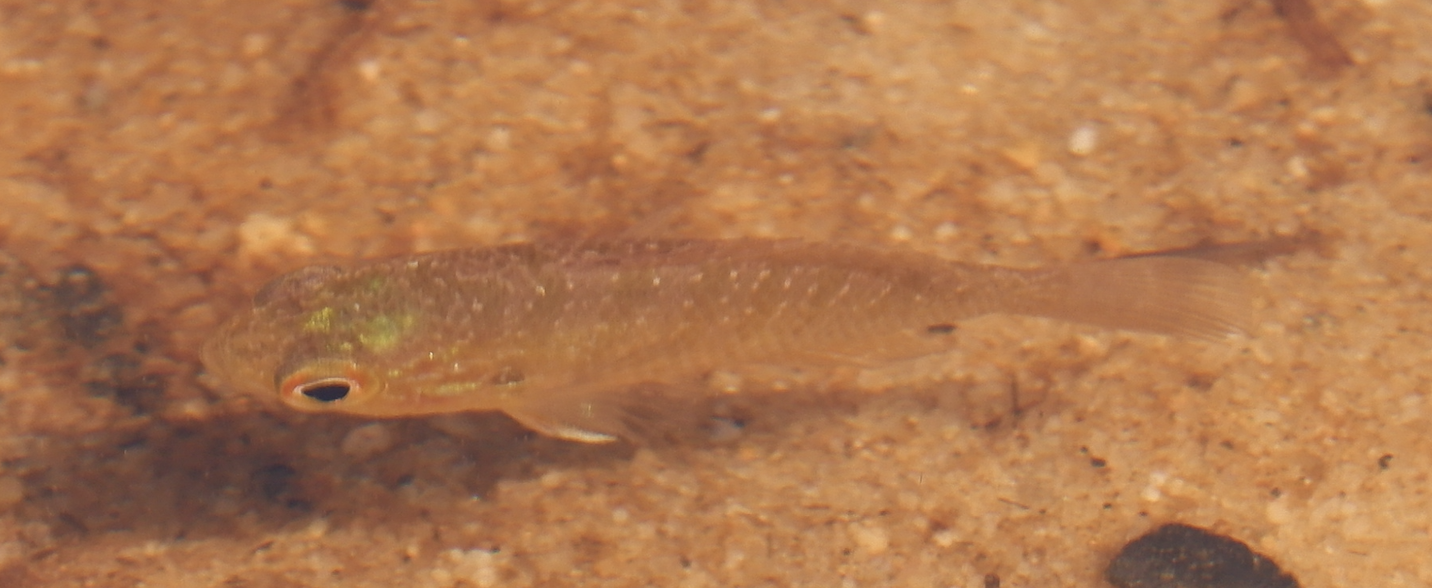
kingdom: Animalia
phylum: Chordata
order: Perciformes
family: Centrarchidae
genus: Enneacanthus
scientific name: Enneacanthus obesus
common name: Banded sunfish
